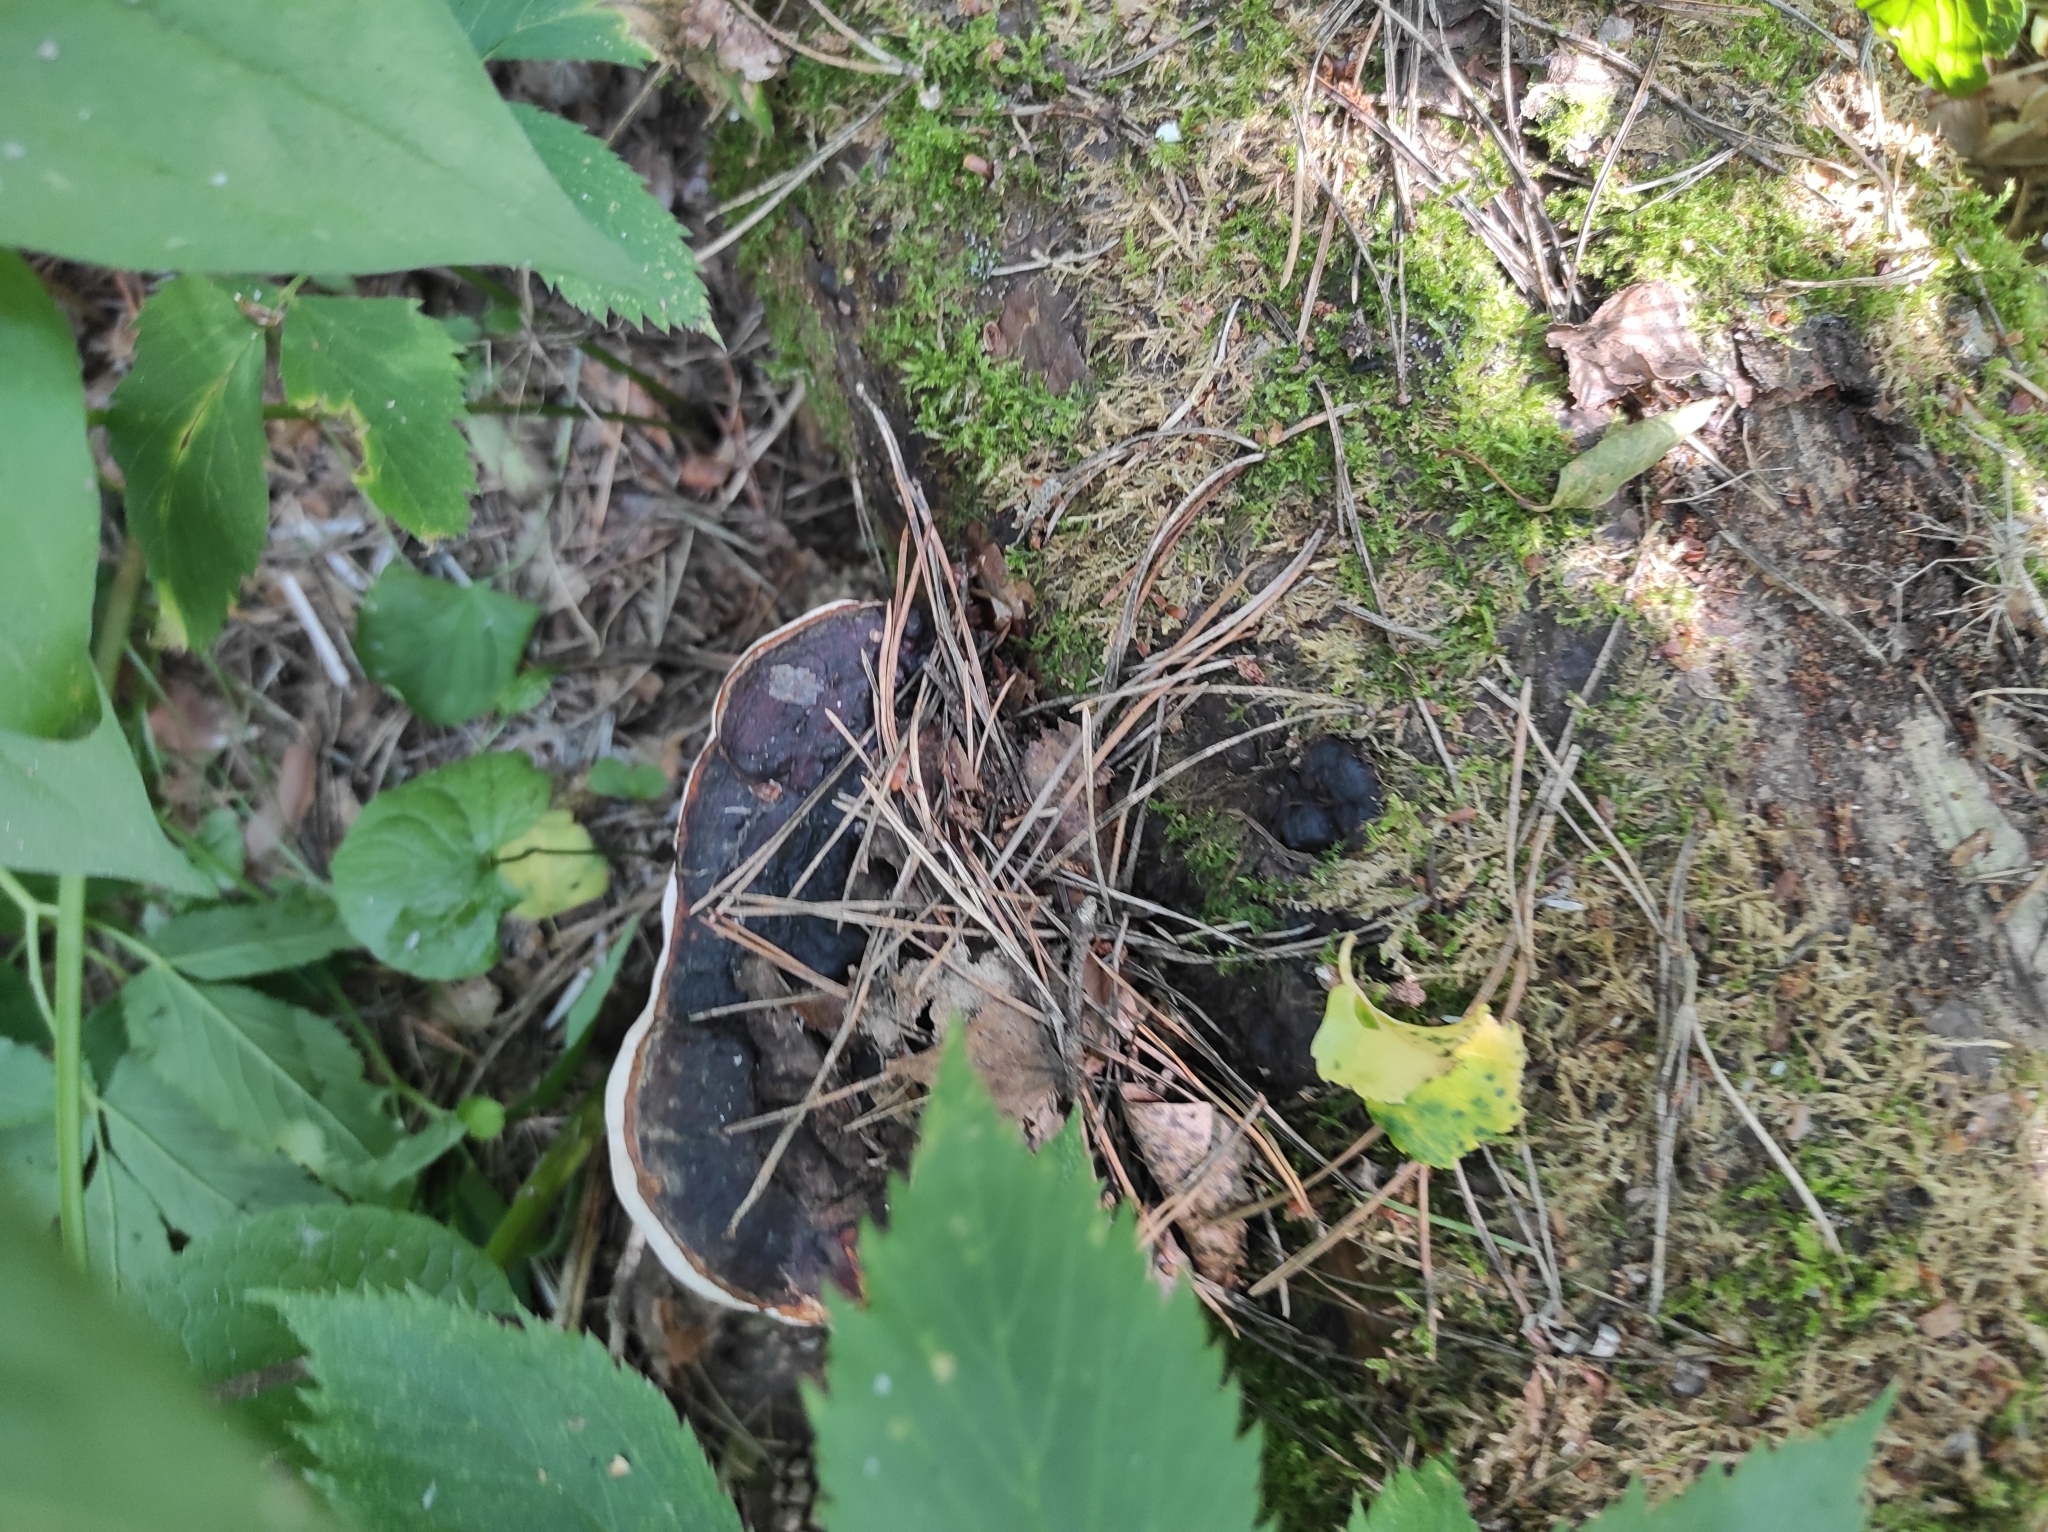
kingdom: Fungi
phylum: Basidiomycota
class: Agaricomycetes
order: Polyporales
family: Fomitopsidaceae
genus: Fomitopsis
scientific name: Fomitopsis pinicola
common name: Red-belted bracket
